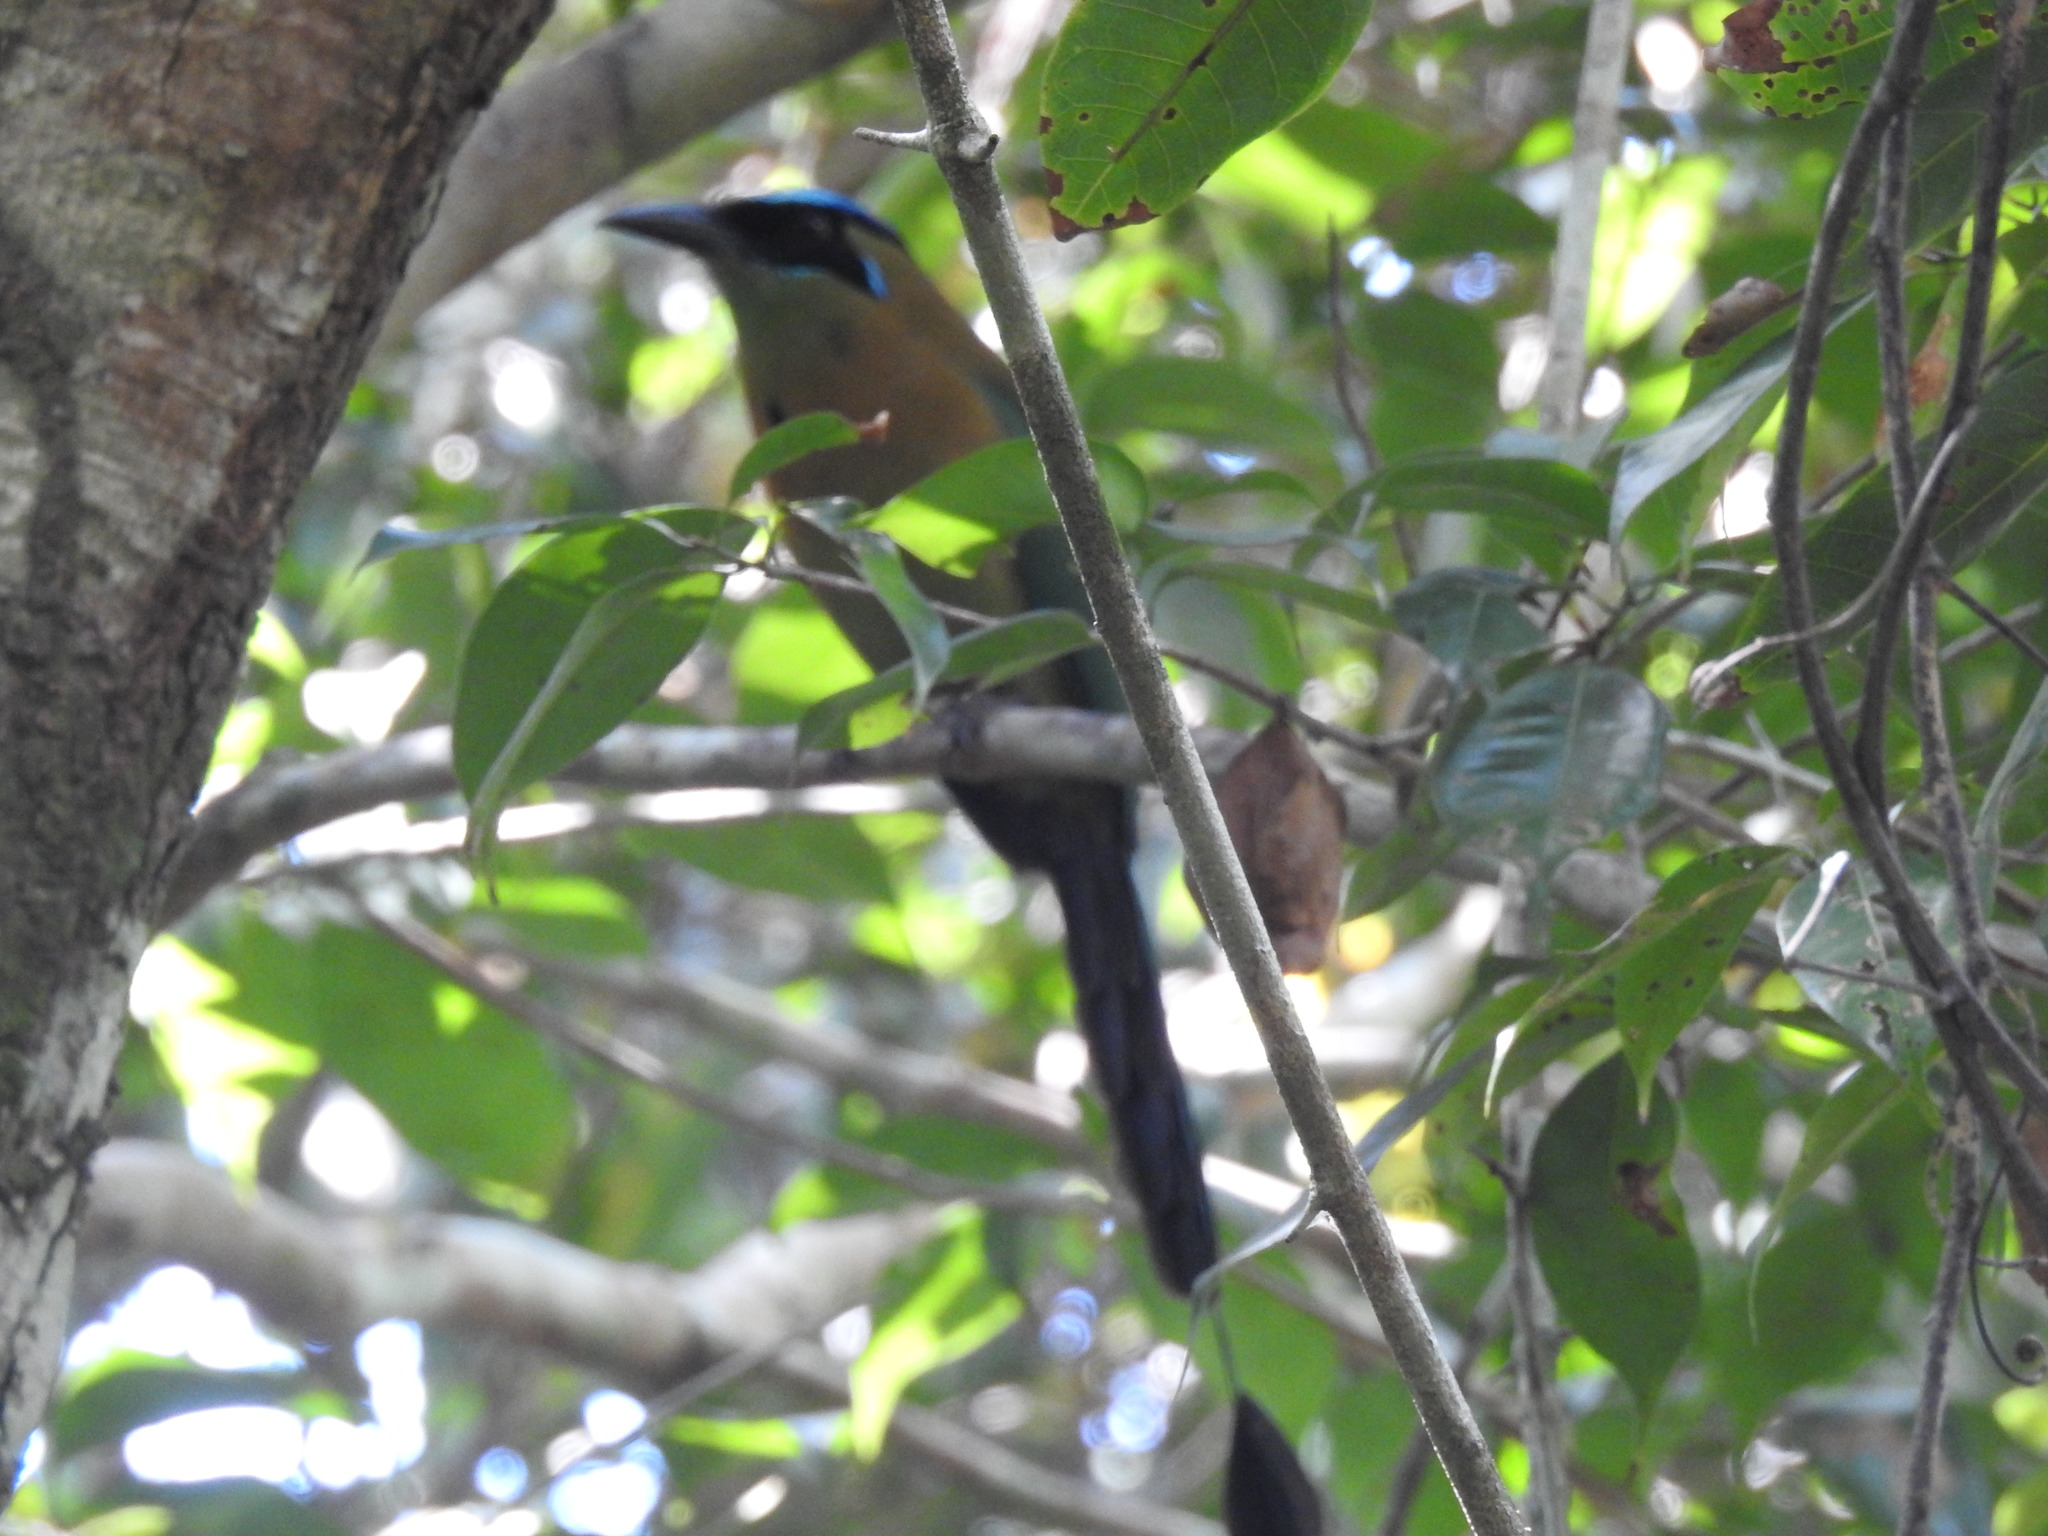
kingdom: Animalia
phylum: Chordata
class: Aves
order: Coraciiformes
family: Momotidae
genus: Momotus
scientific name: Momotus lessonii
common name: Lesson's motmot
